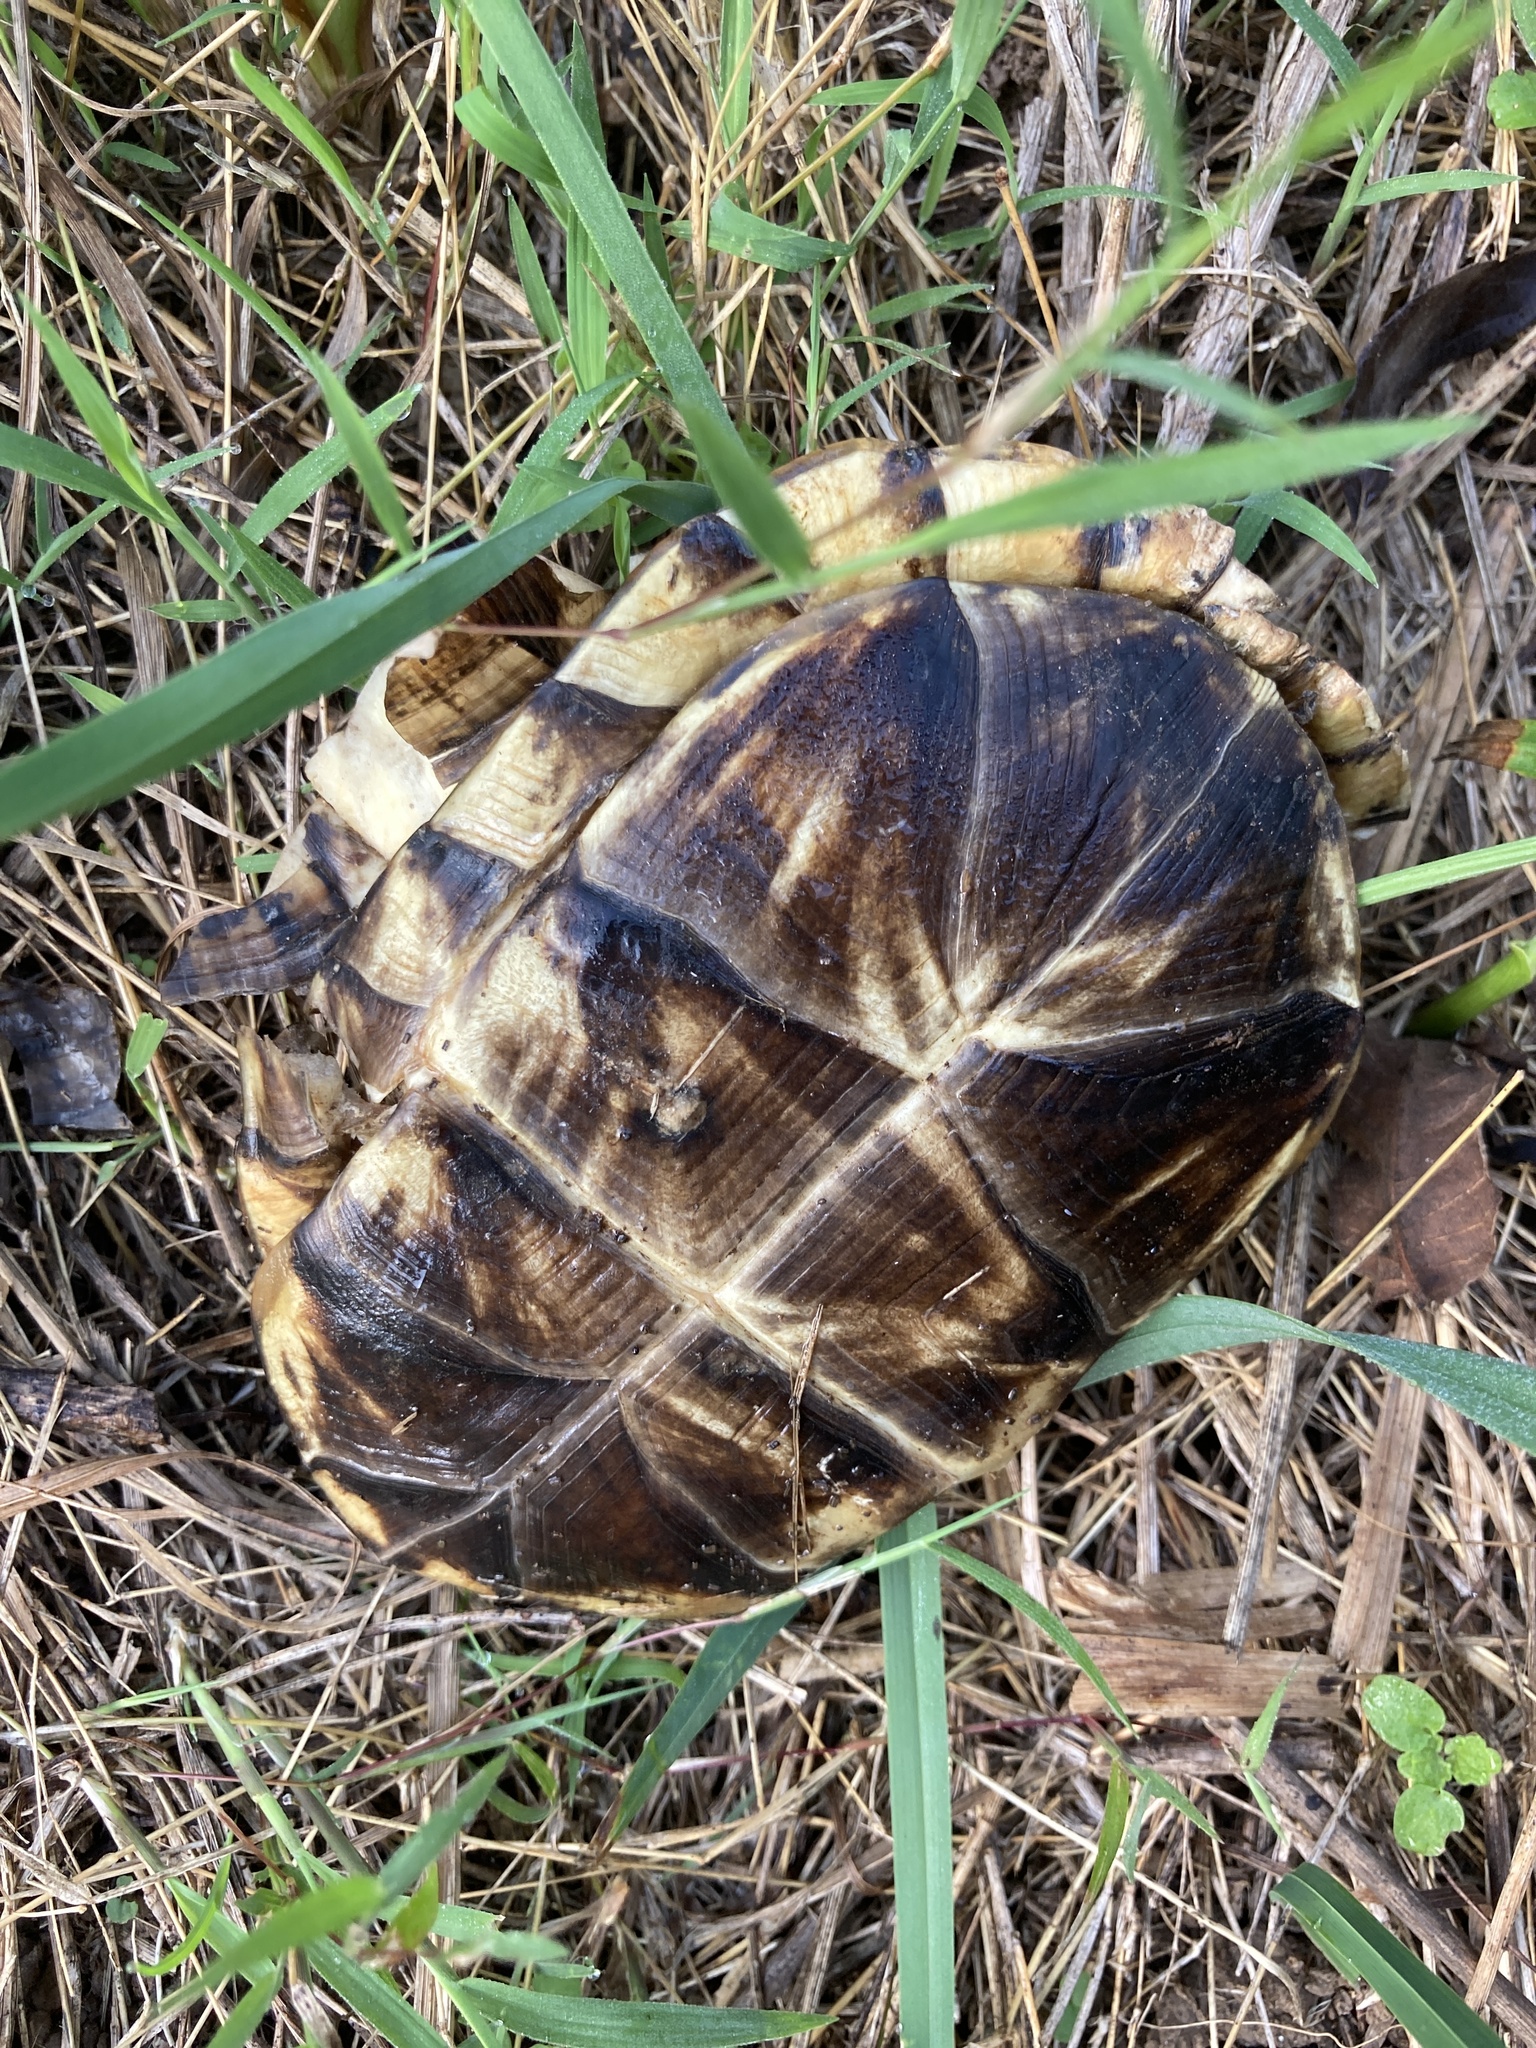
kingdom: Animalia
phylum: Chordata
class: Testudines
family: Emydidae
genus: Terrapene
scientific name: Terrapene carolina
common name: Common box turtle
